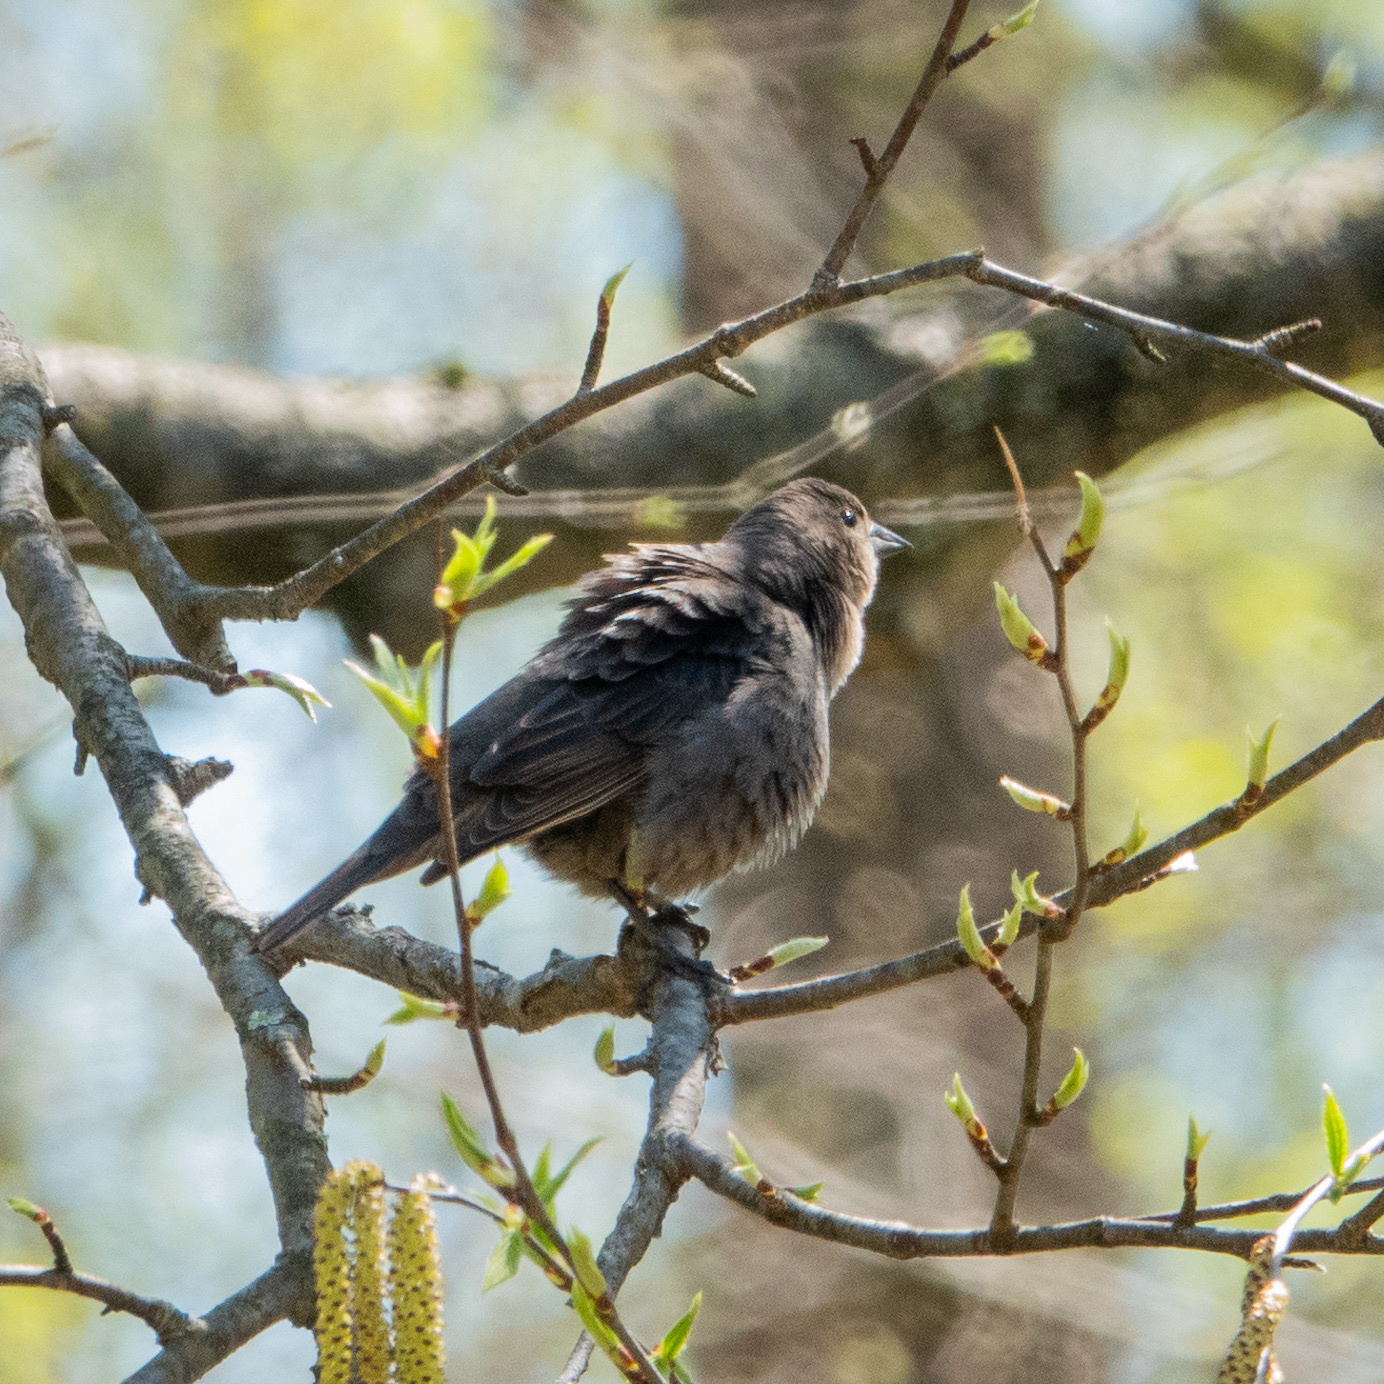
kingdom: Animalia
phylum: Chordata
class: Aves
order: Passeriformes
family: Icteridae
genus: Molothrus
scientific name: Molothrus ater
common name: Brown-headed cowbird
